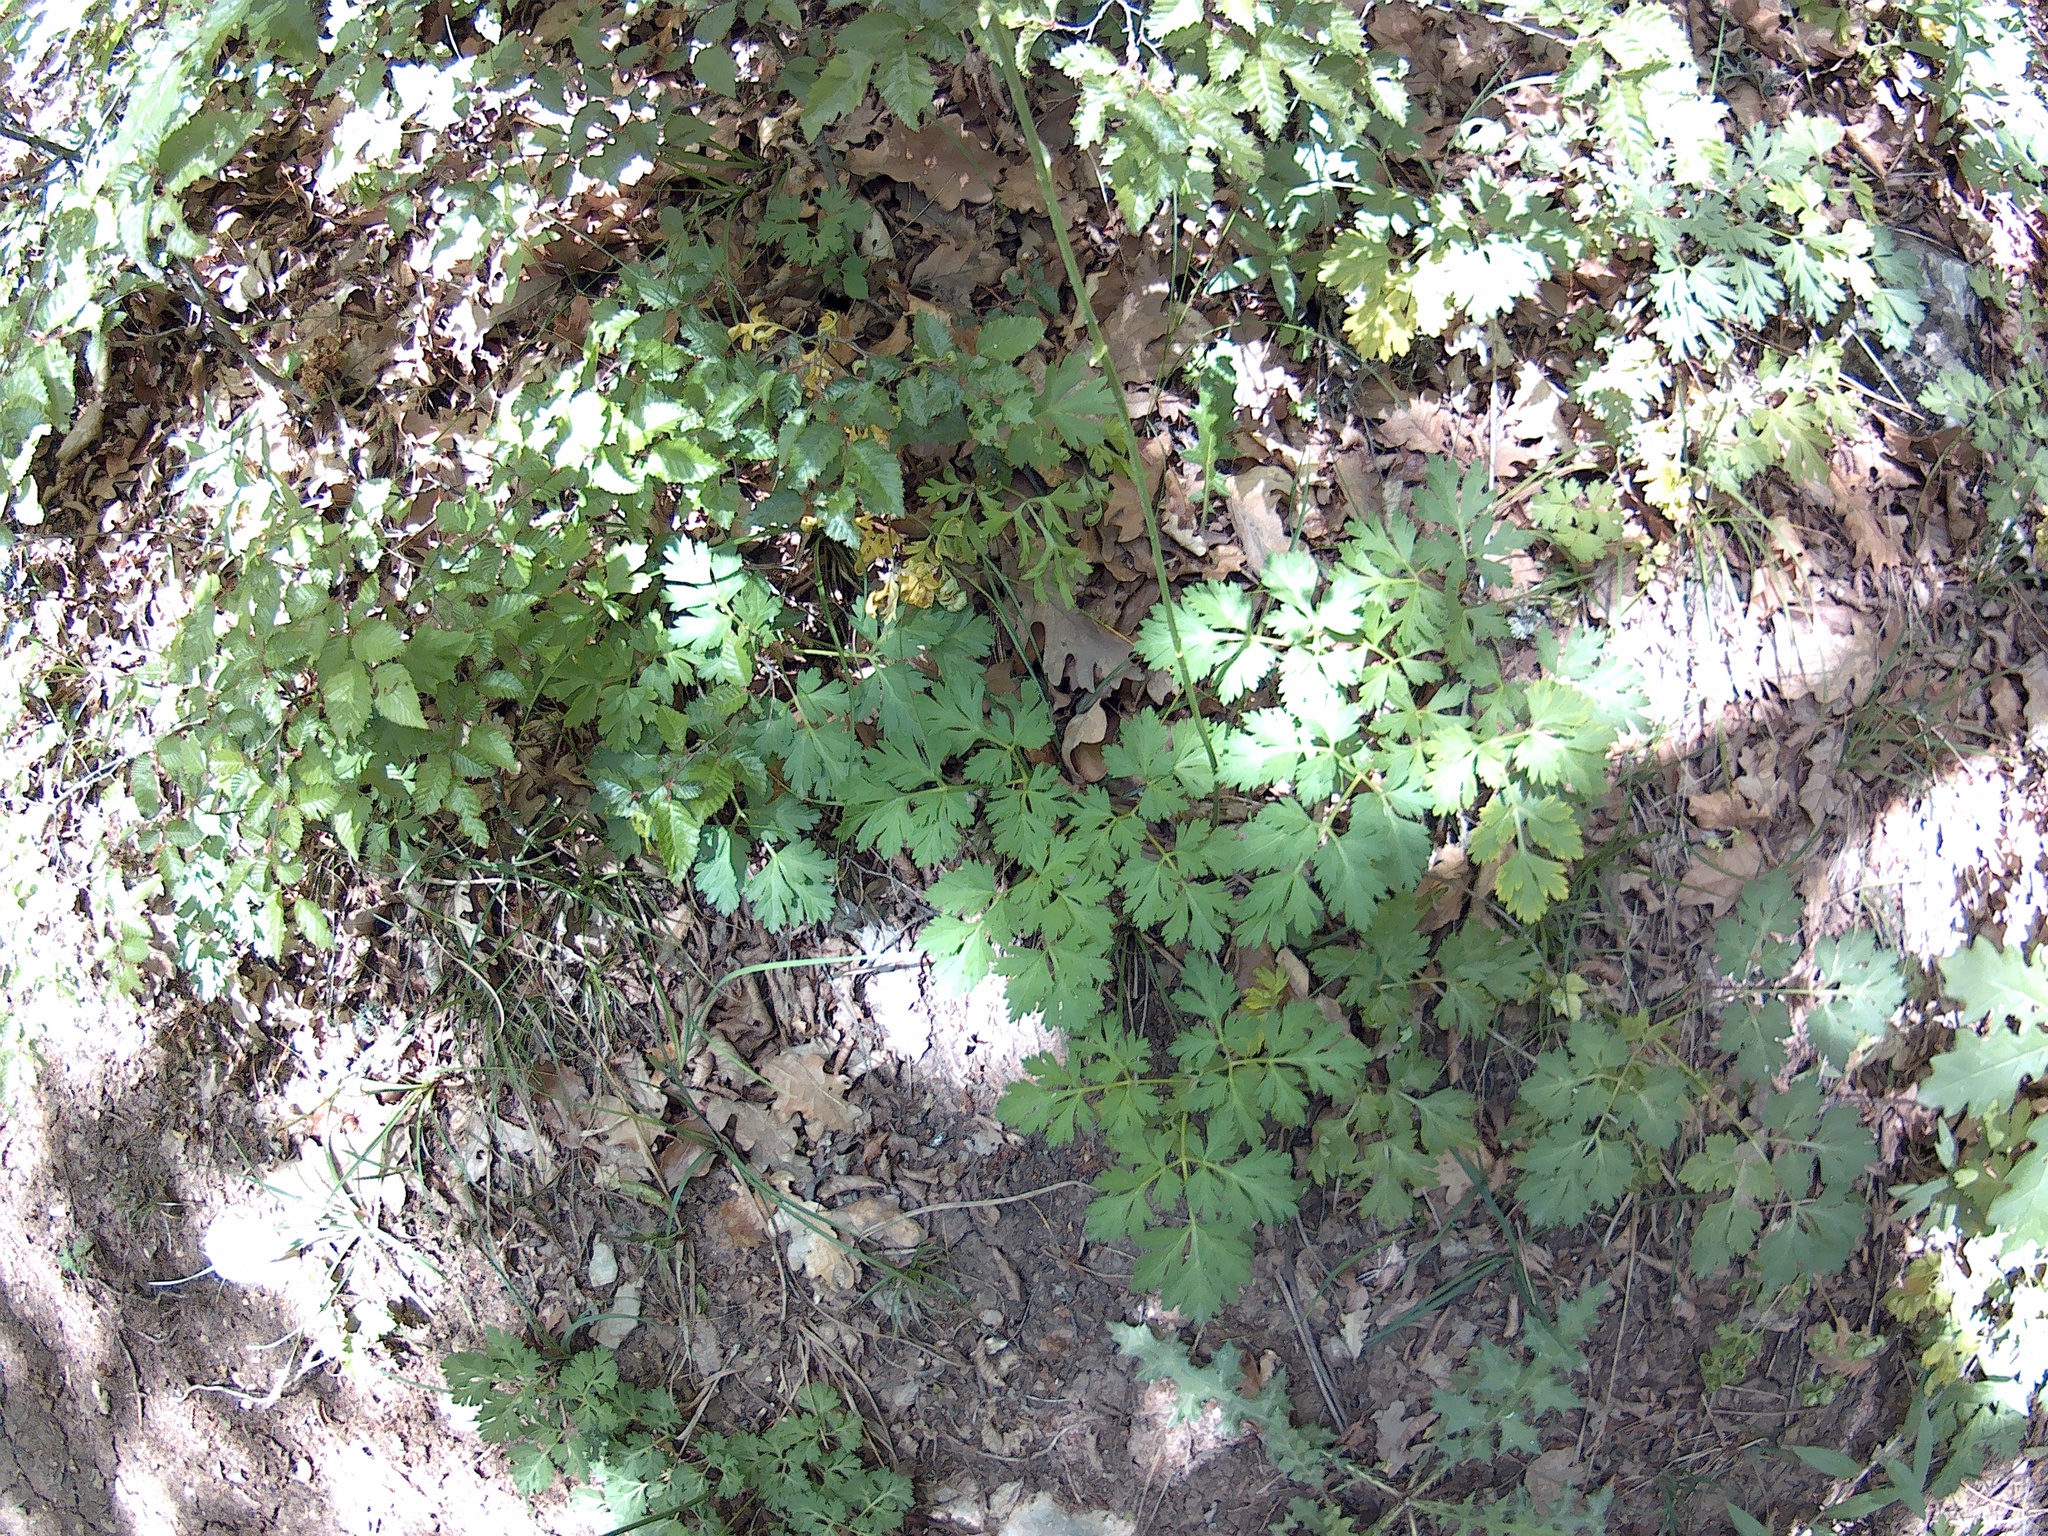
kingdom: Plantae
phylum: Tracheophyta
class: Magnoliopsida
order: Apiales
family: Apiaceae
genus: Physospermum
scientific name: Physospermum cornubiense
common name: Bladderseed
